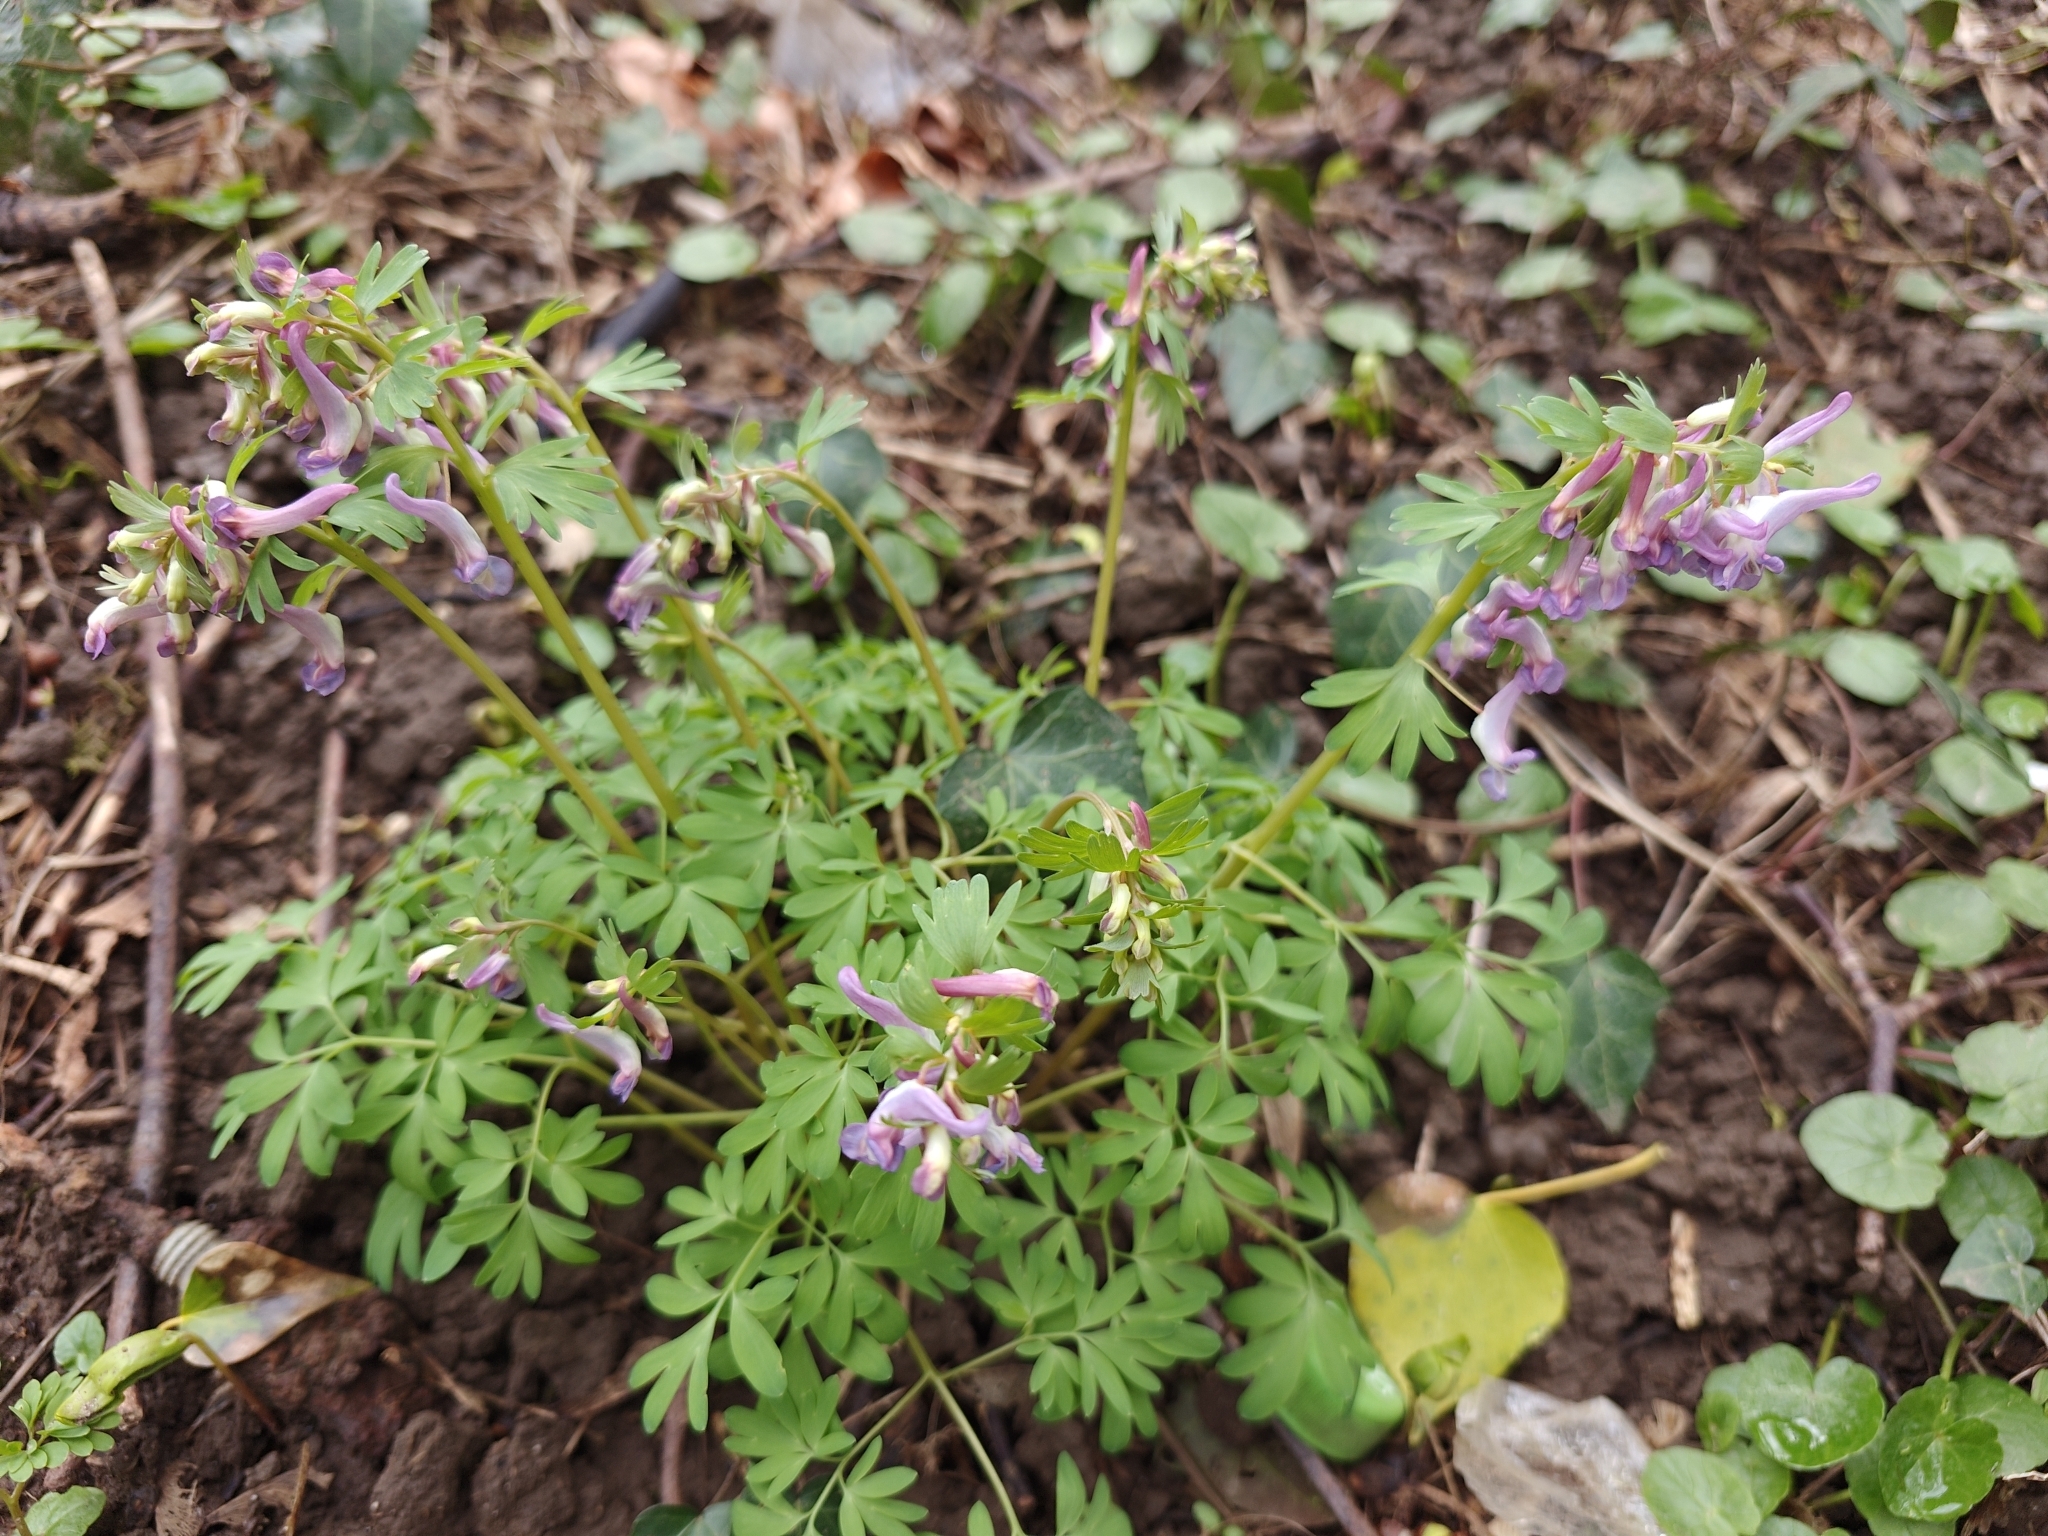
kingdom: Plantae
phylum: Tracheophyta
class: Magnoliopsida
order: Ranunculales
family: Papaveraceae
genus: Corydalis
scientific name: Corydalis solida
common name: Bird-in-a-bush
